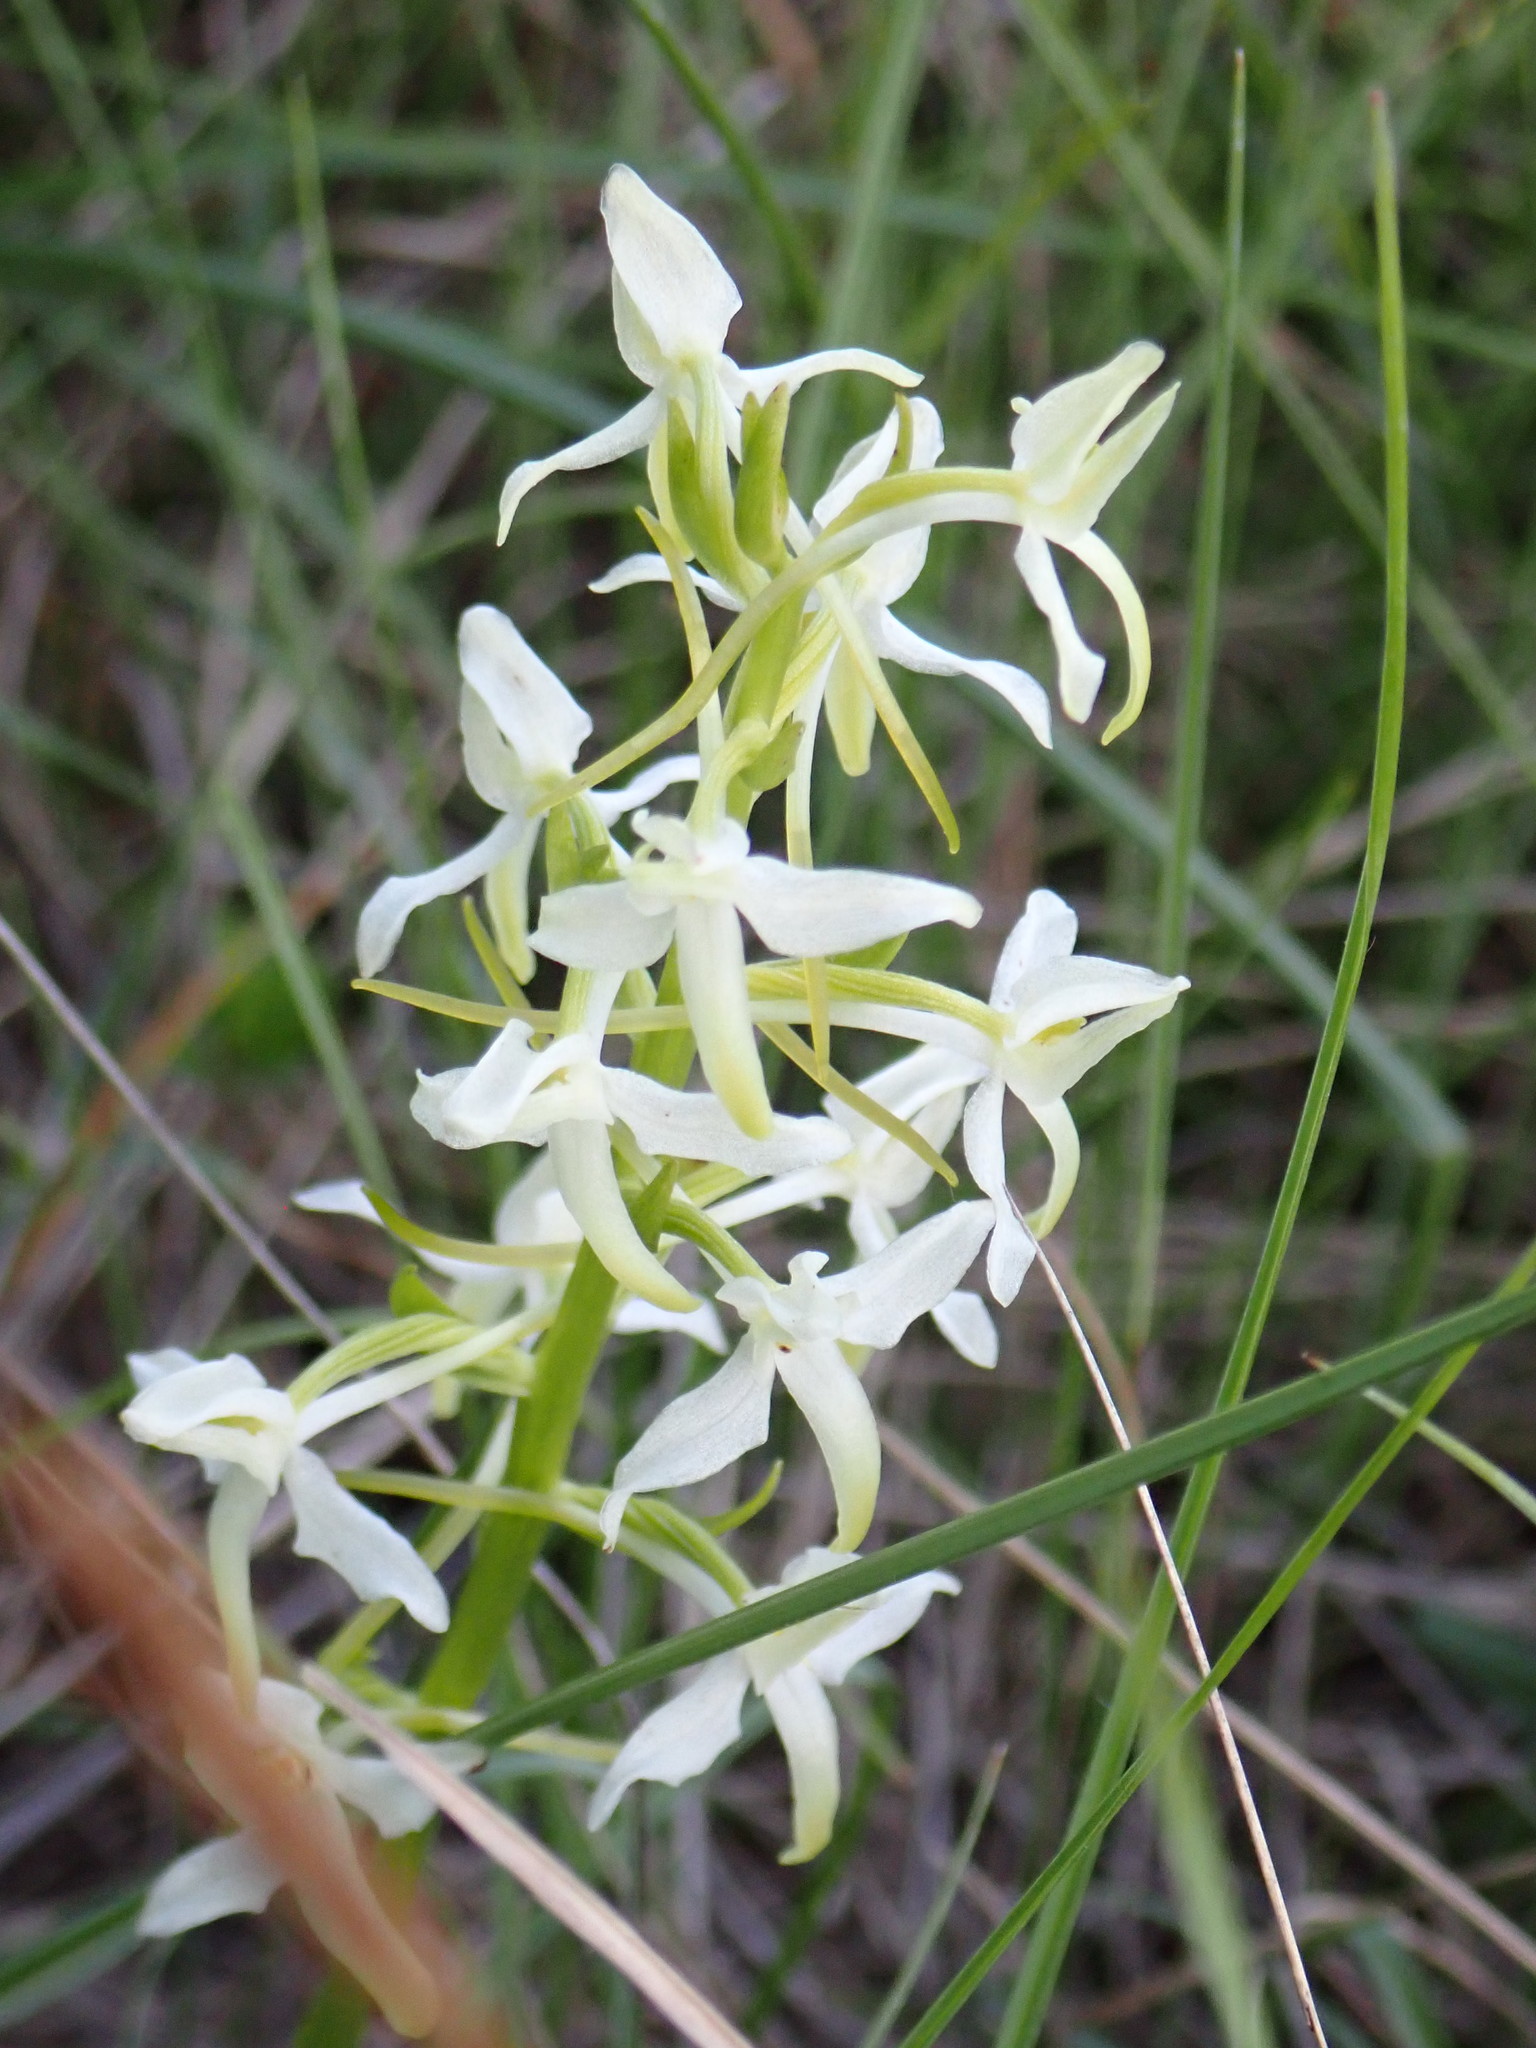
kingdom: Plantae
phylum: Tracheophyta
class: Liliopsida
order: Asparagales
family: Orchidaceae
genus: Platanthera
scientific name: Platanthera bifolia
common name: Lesser butterfly-orchid
